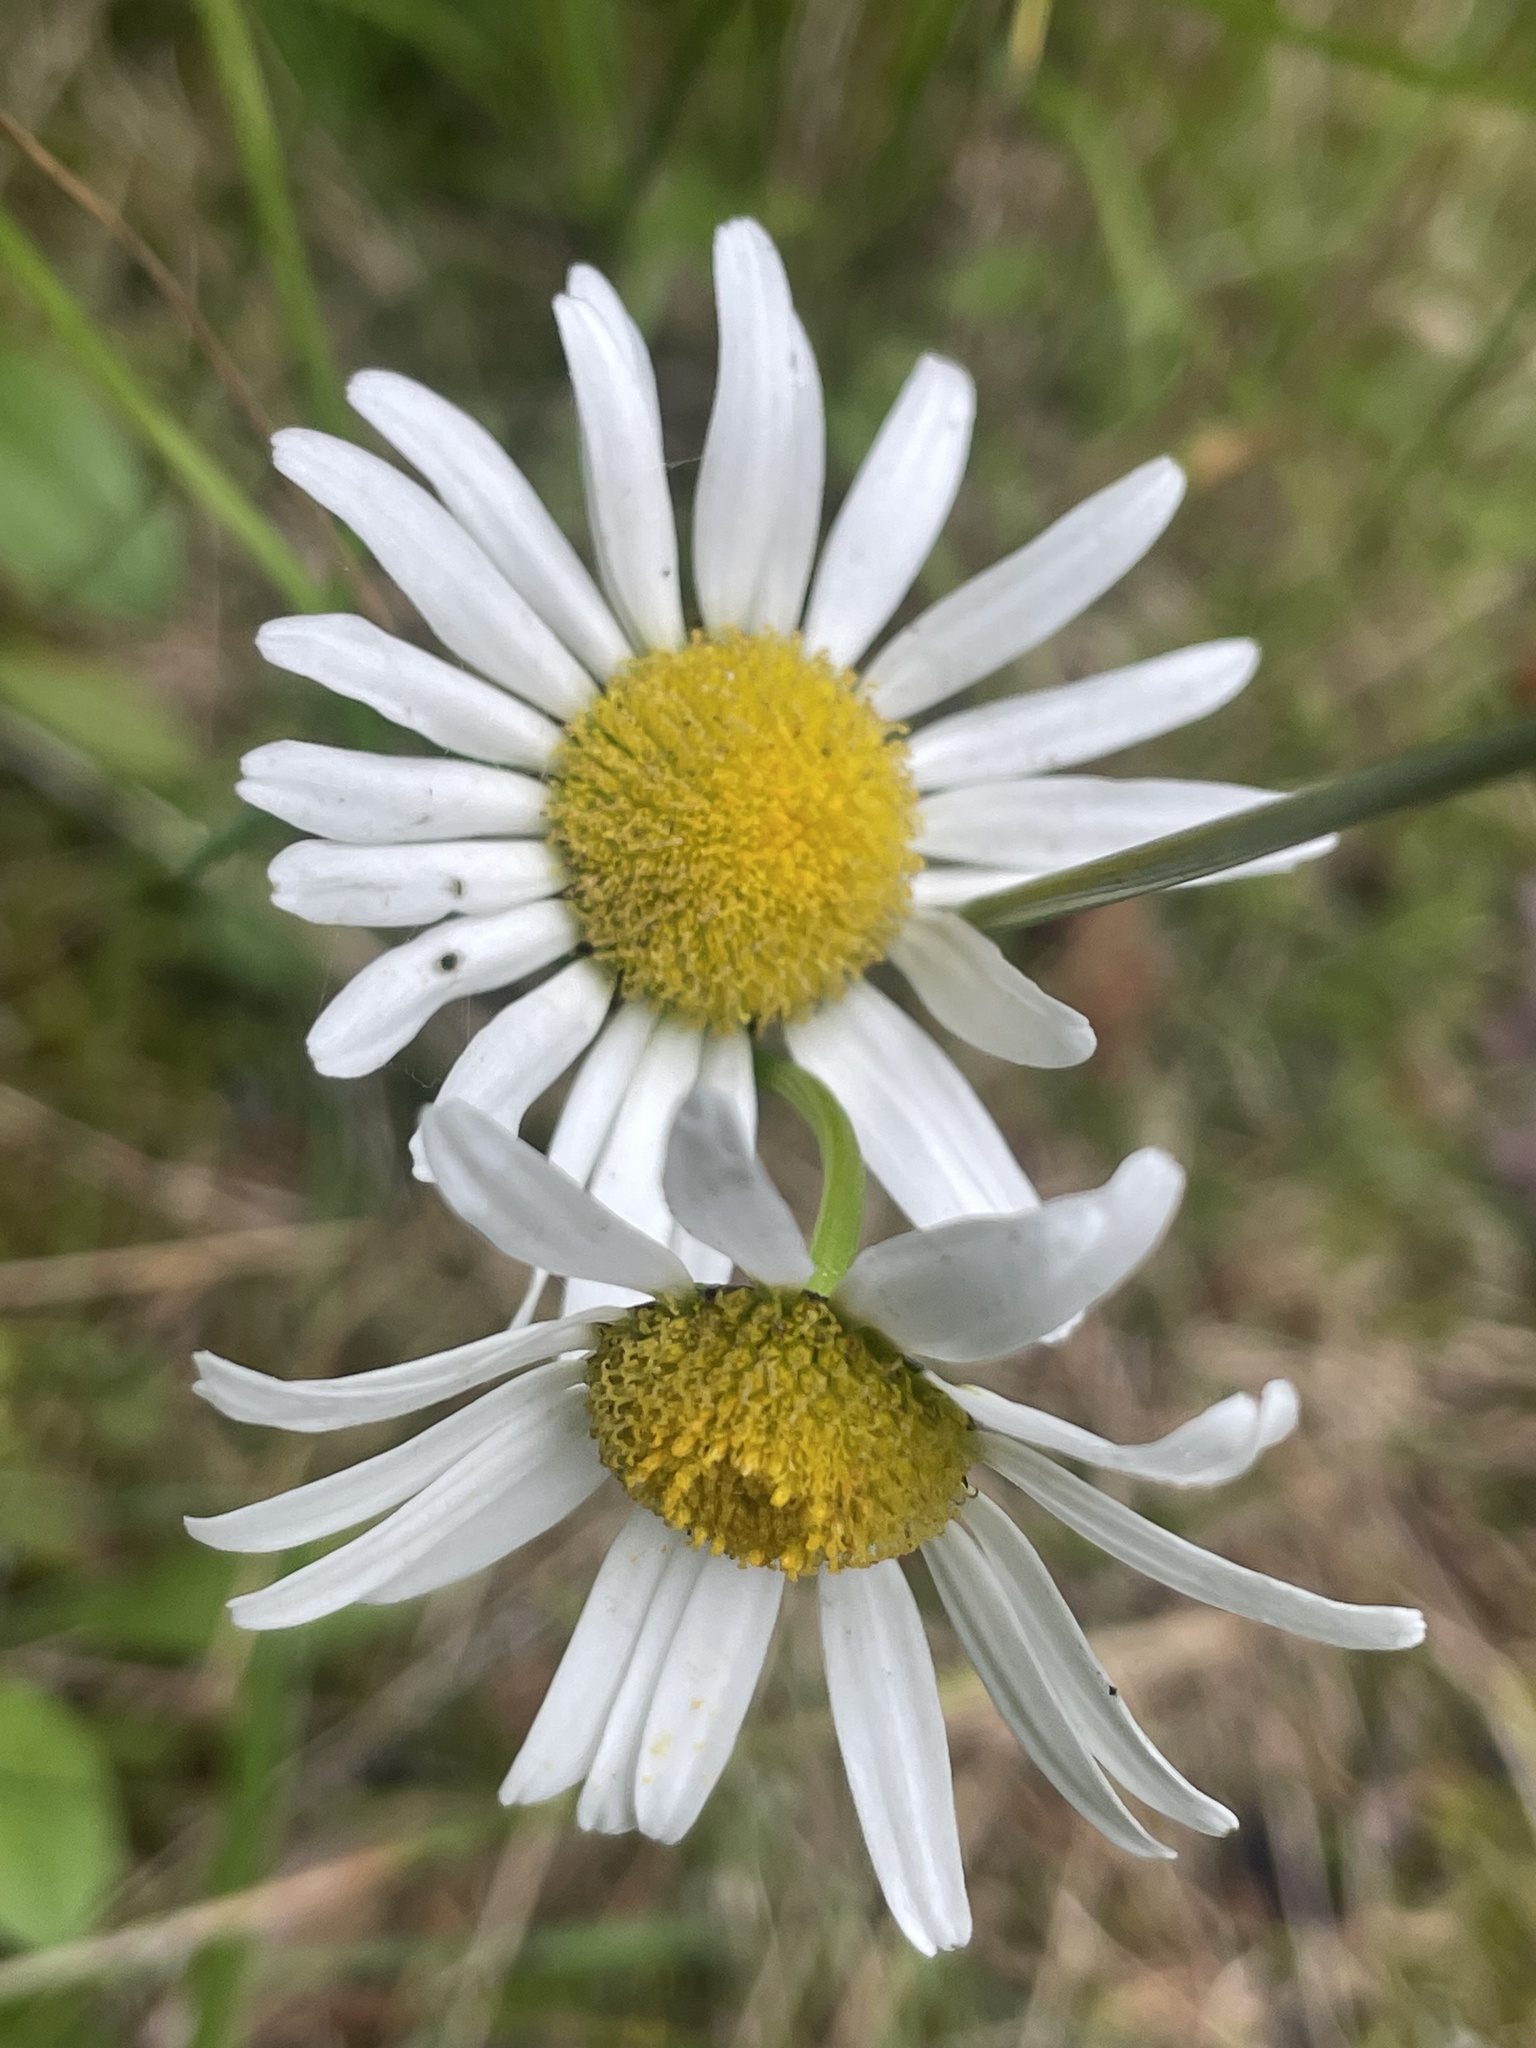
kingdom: Plantae
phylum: Tracheophyta
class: Magnoliopsida
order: Asterales
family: Asteraceae
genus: Leucanthemum
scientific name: Leucanthemum vulgare
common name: Oxeye daisy
